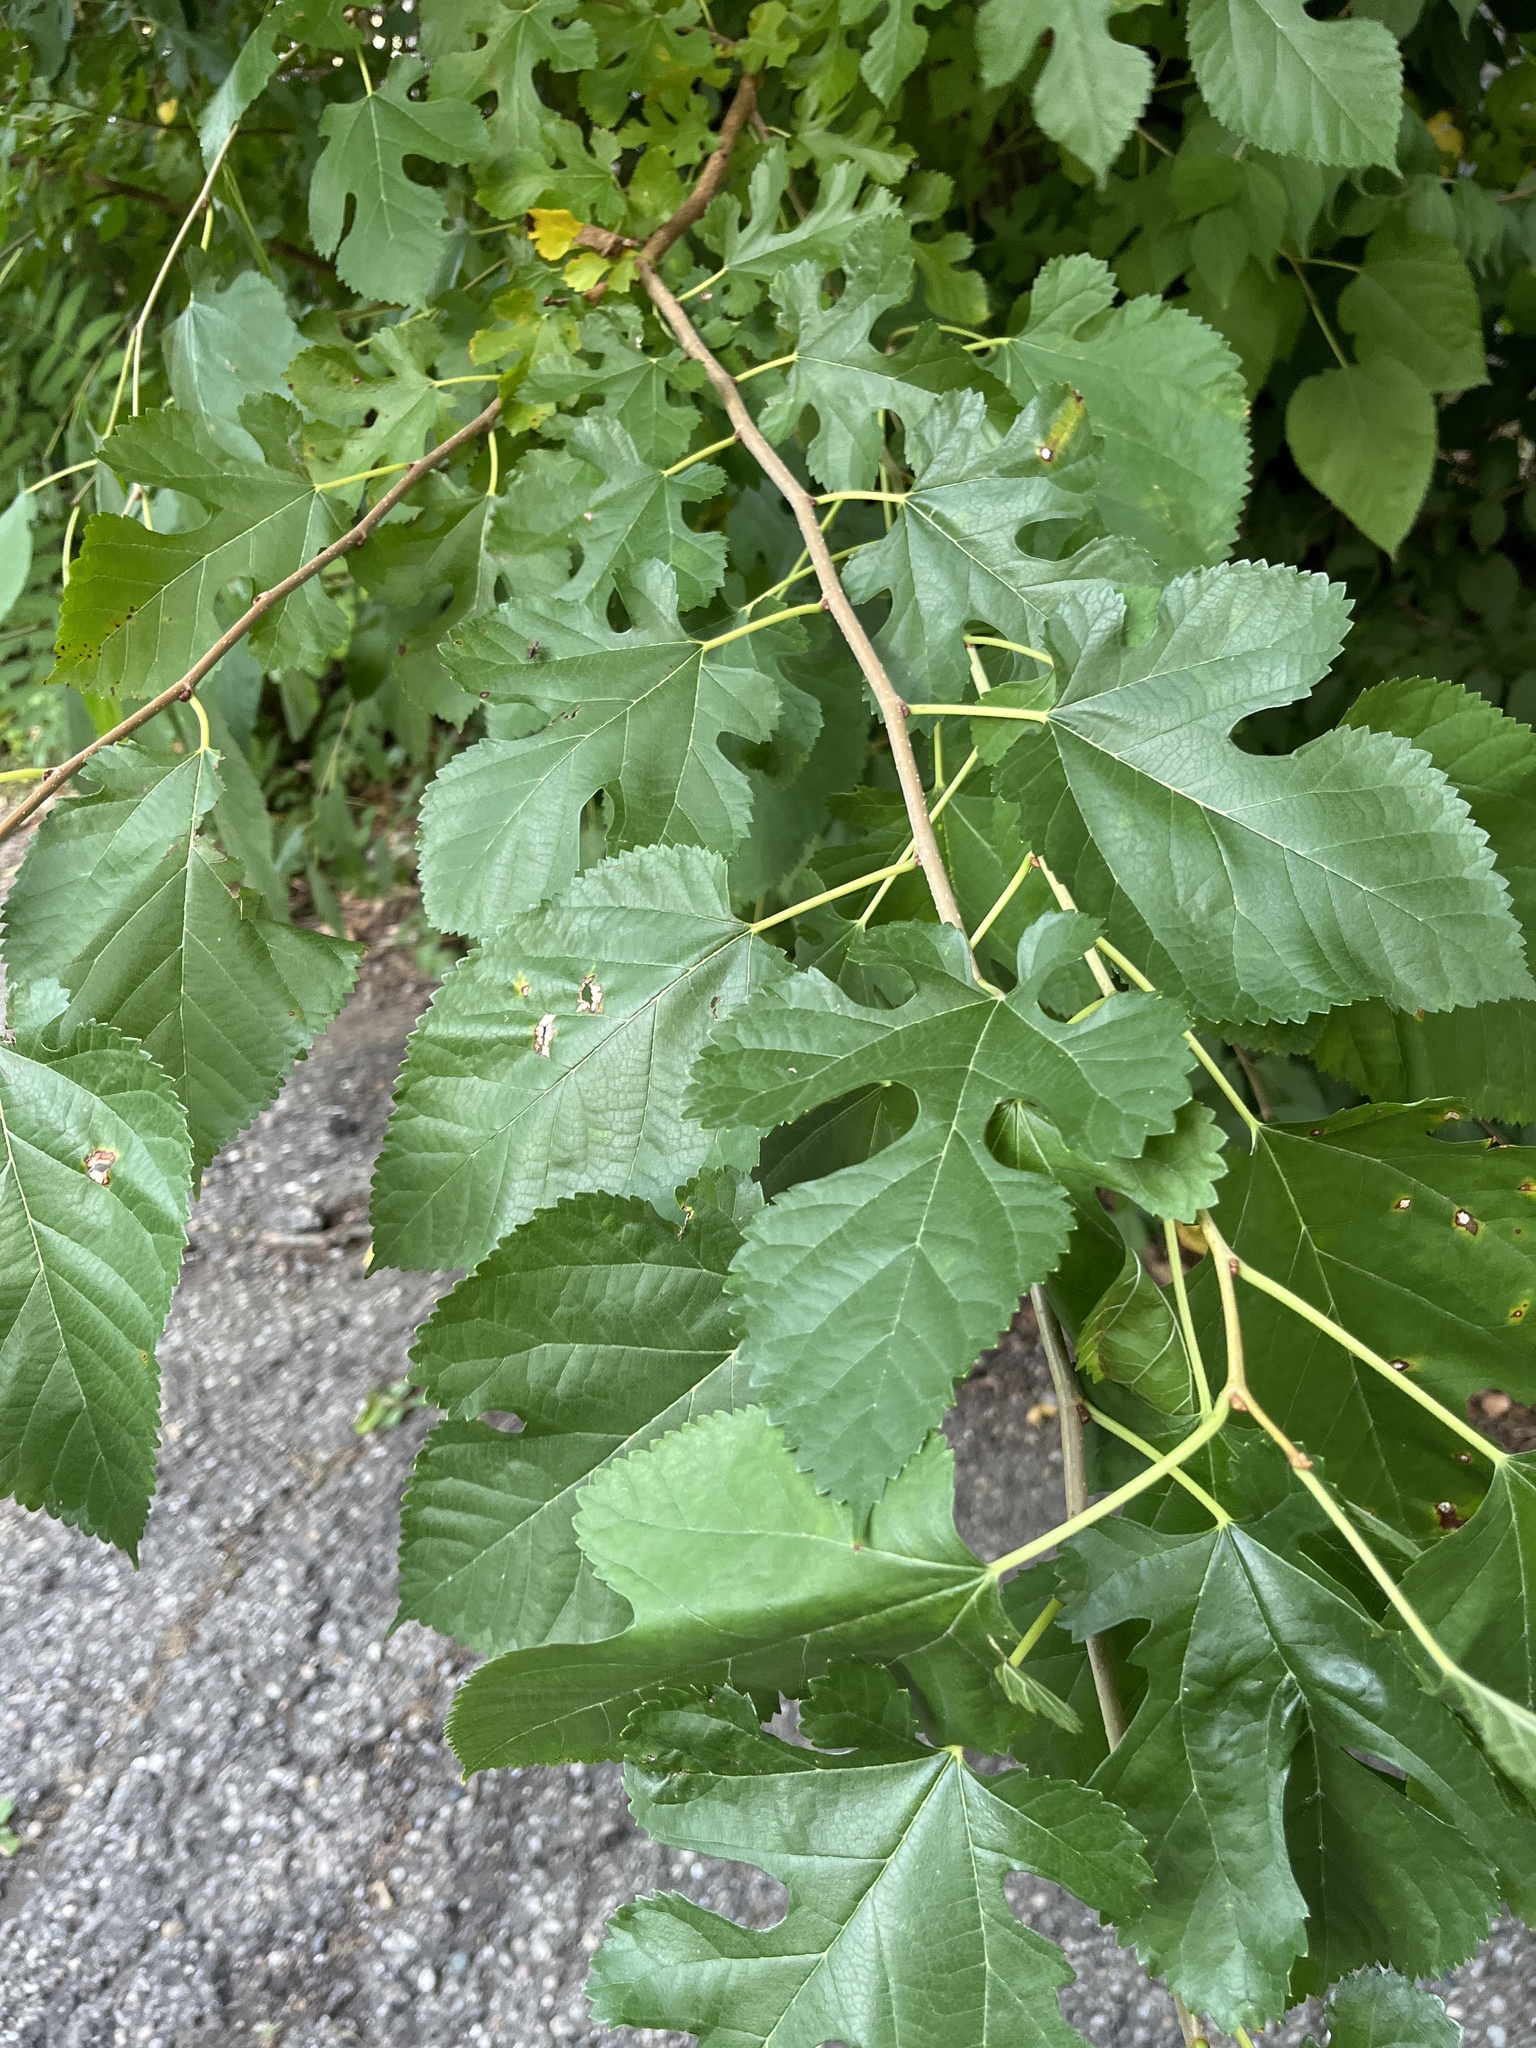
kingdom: Plantae
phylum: Tracheophyta
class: Magnoliopsida
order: Rosales
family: Moraceae
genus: Morus
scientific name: Morus alba
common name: White mulberry
